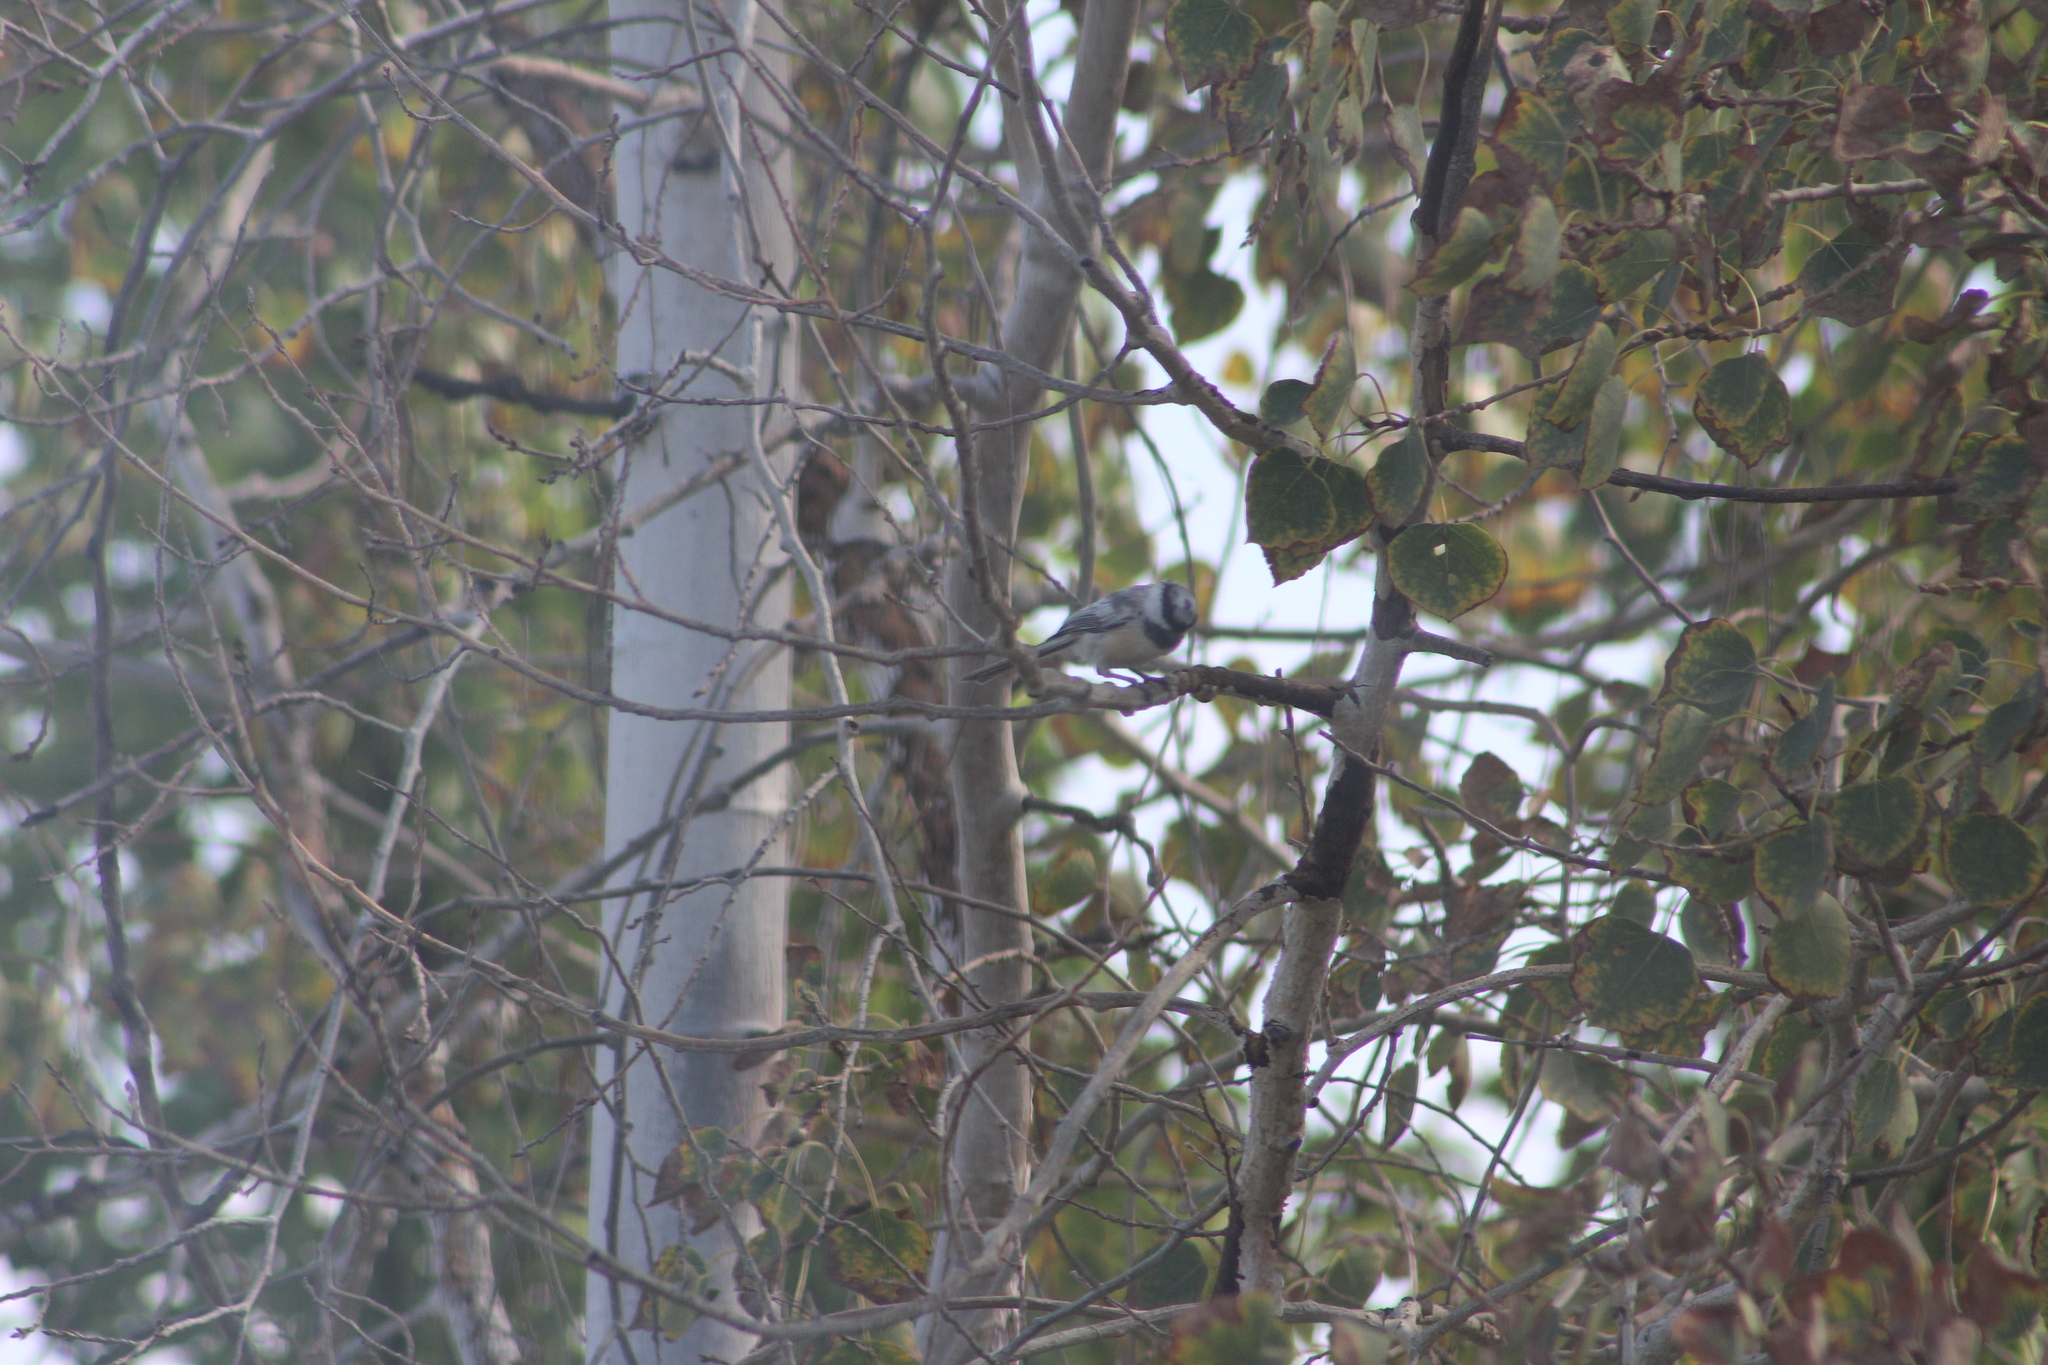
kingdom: Animalia
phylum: Chordata
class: Aves
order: Passeriformes
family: Paridae
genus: Poecile
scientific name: Poecile atricapillus
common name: Black-capped chickadee
